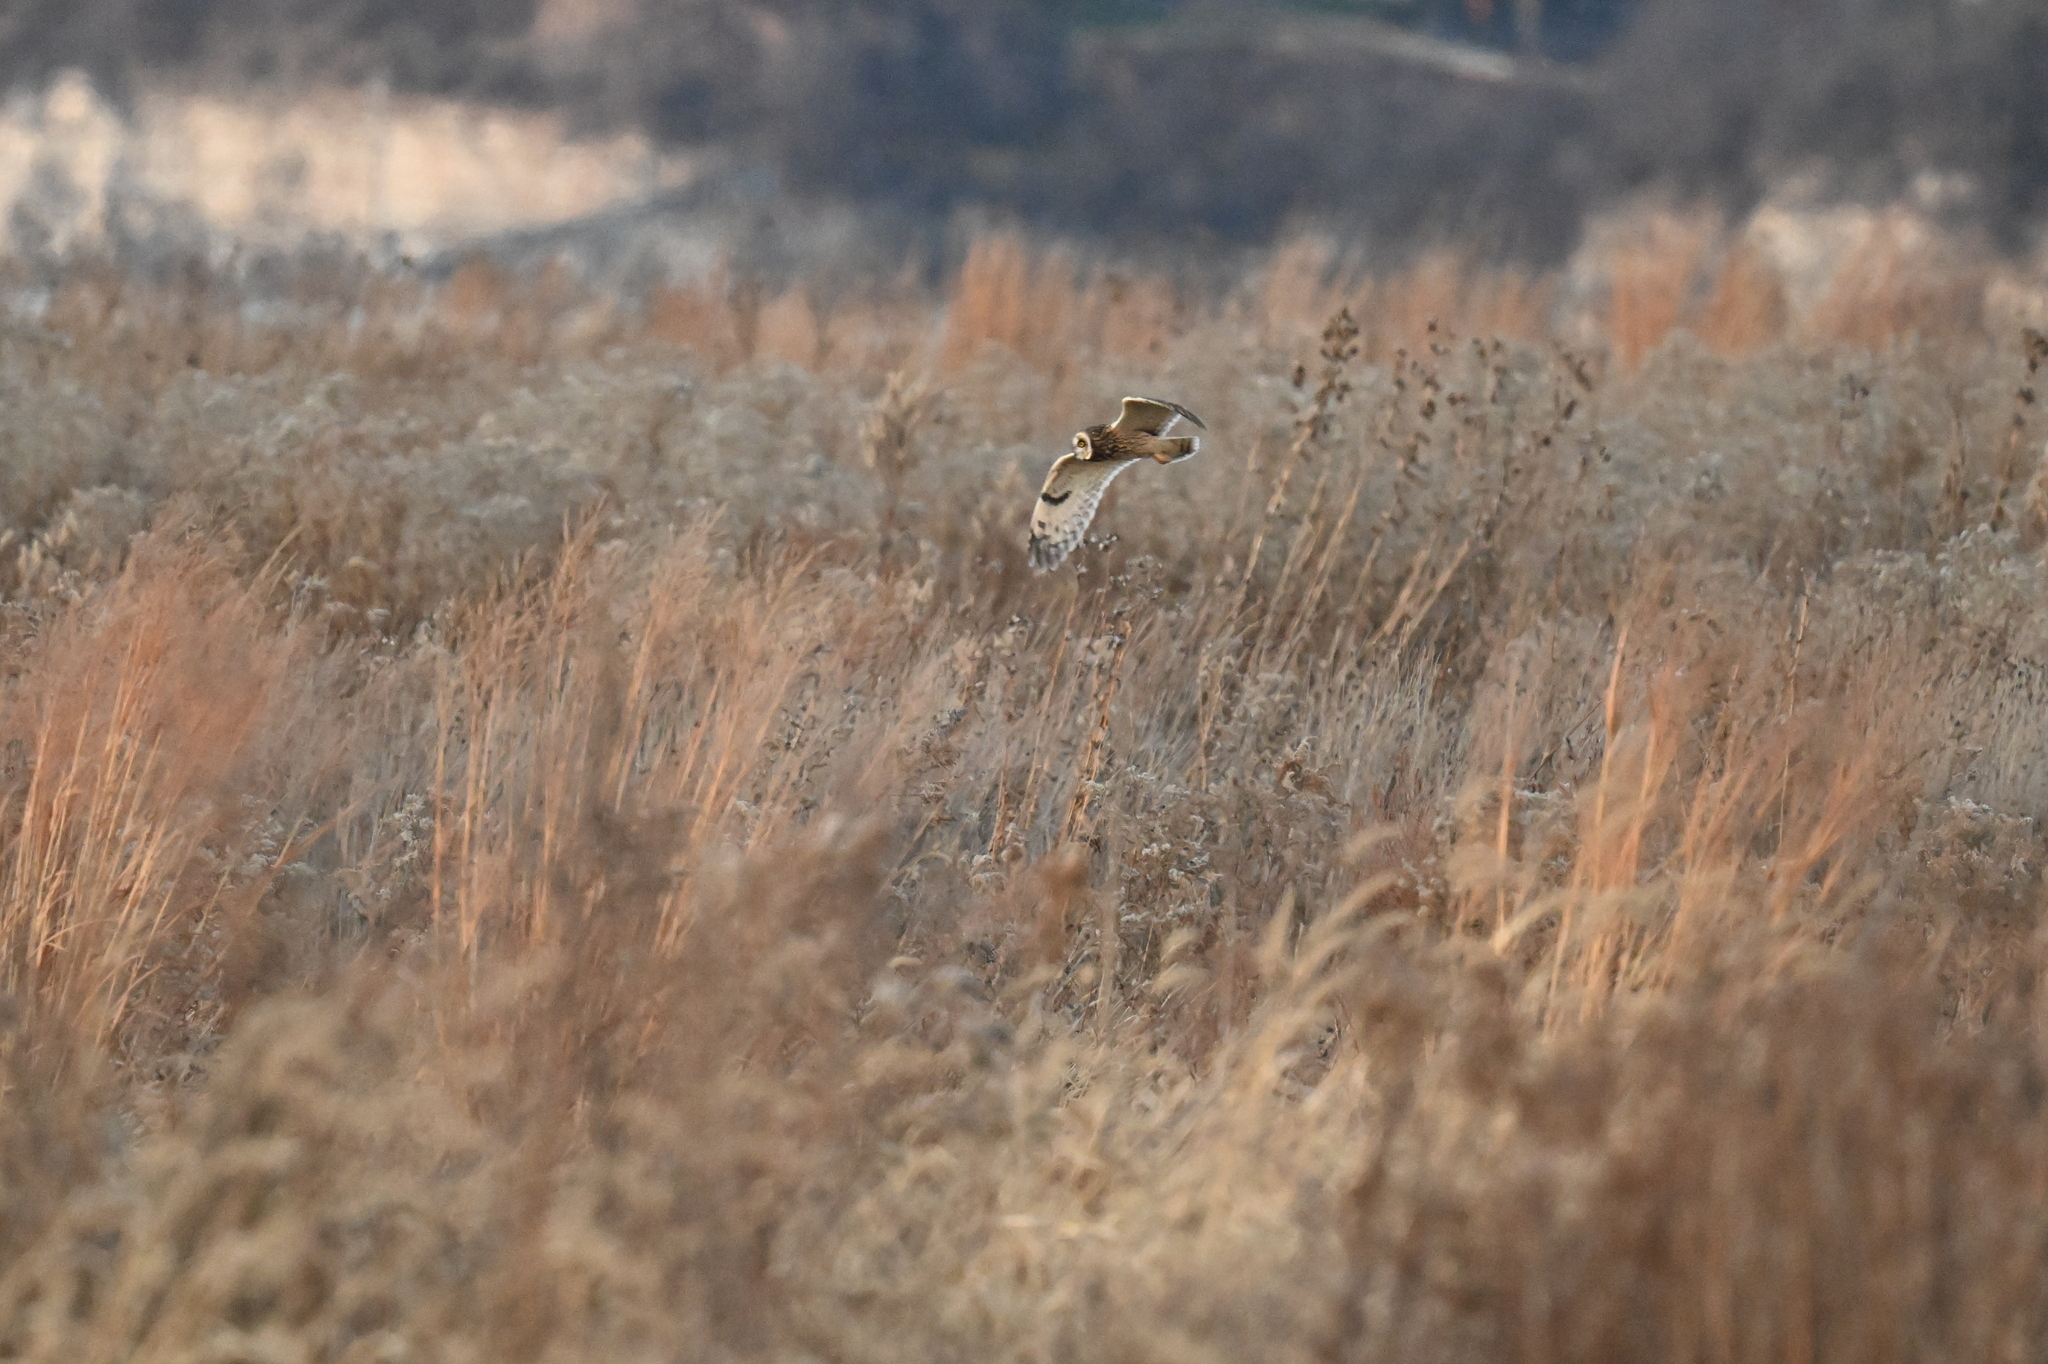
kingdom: Animalia
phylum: Chordata
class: Aves
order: Strigiformes
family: Strigidae
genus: Asio
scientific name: Asio flammeus
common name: Short-eared owl
